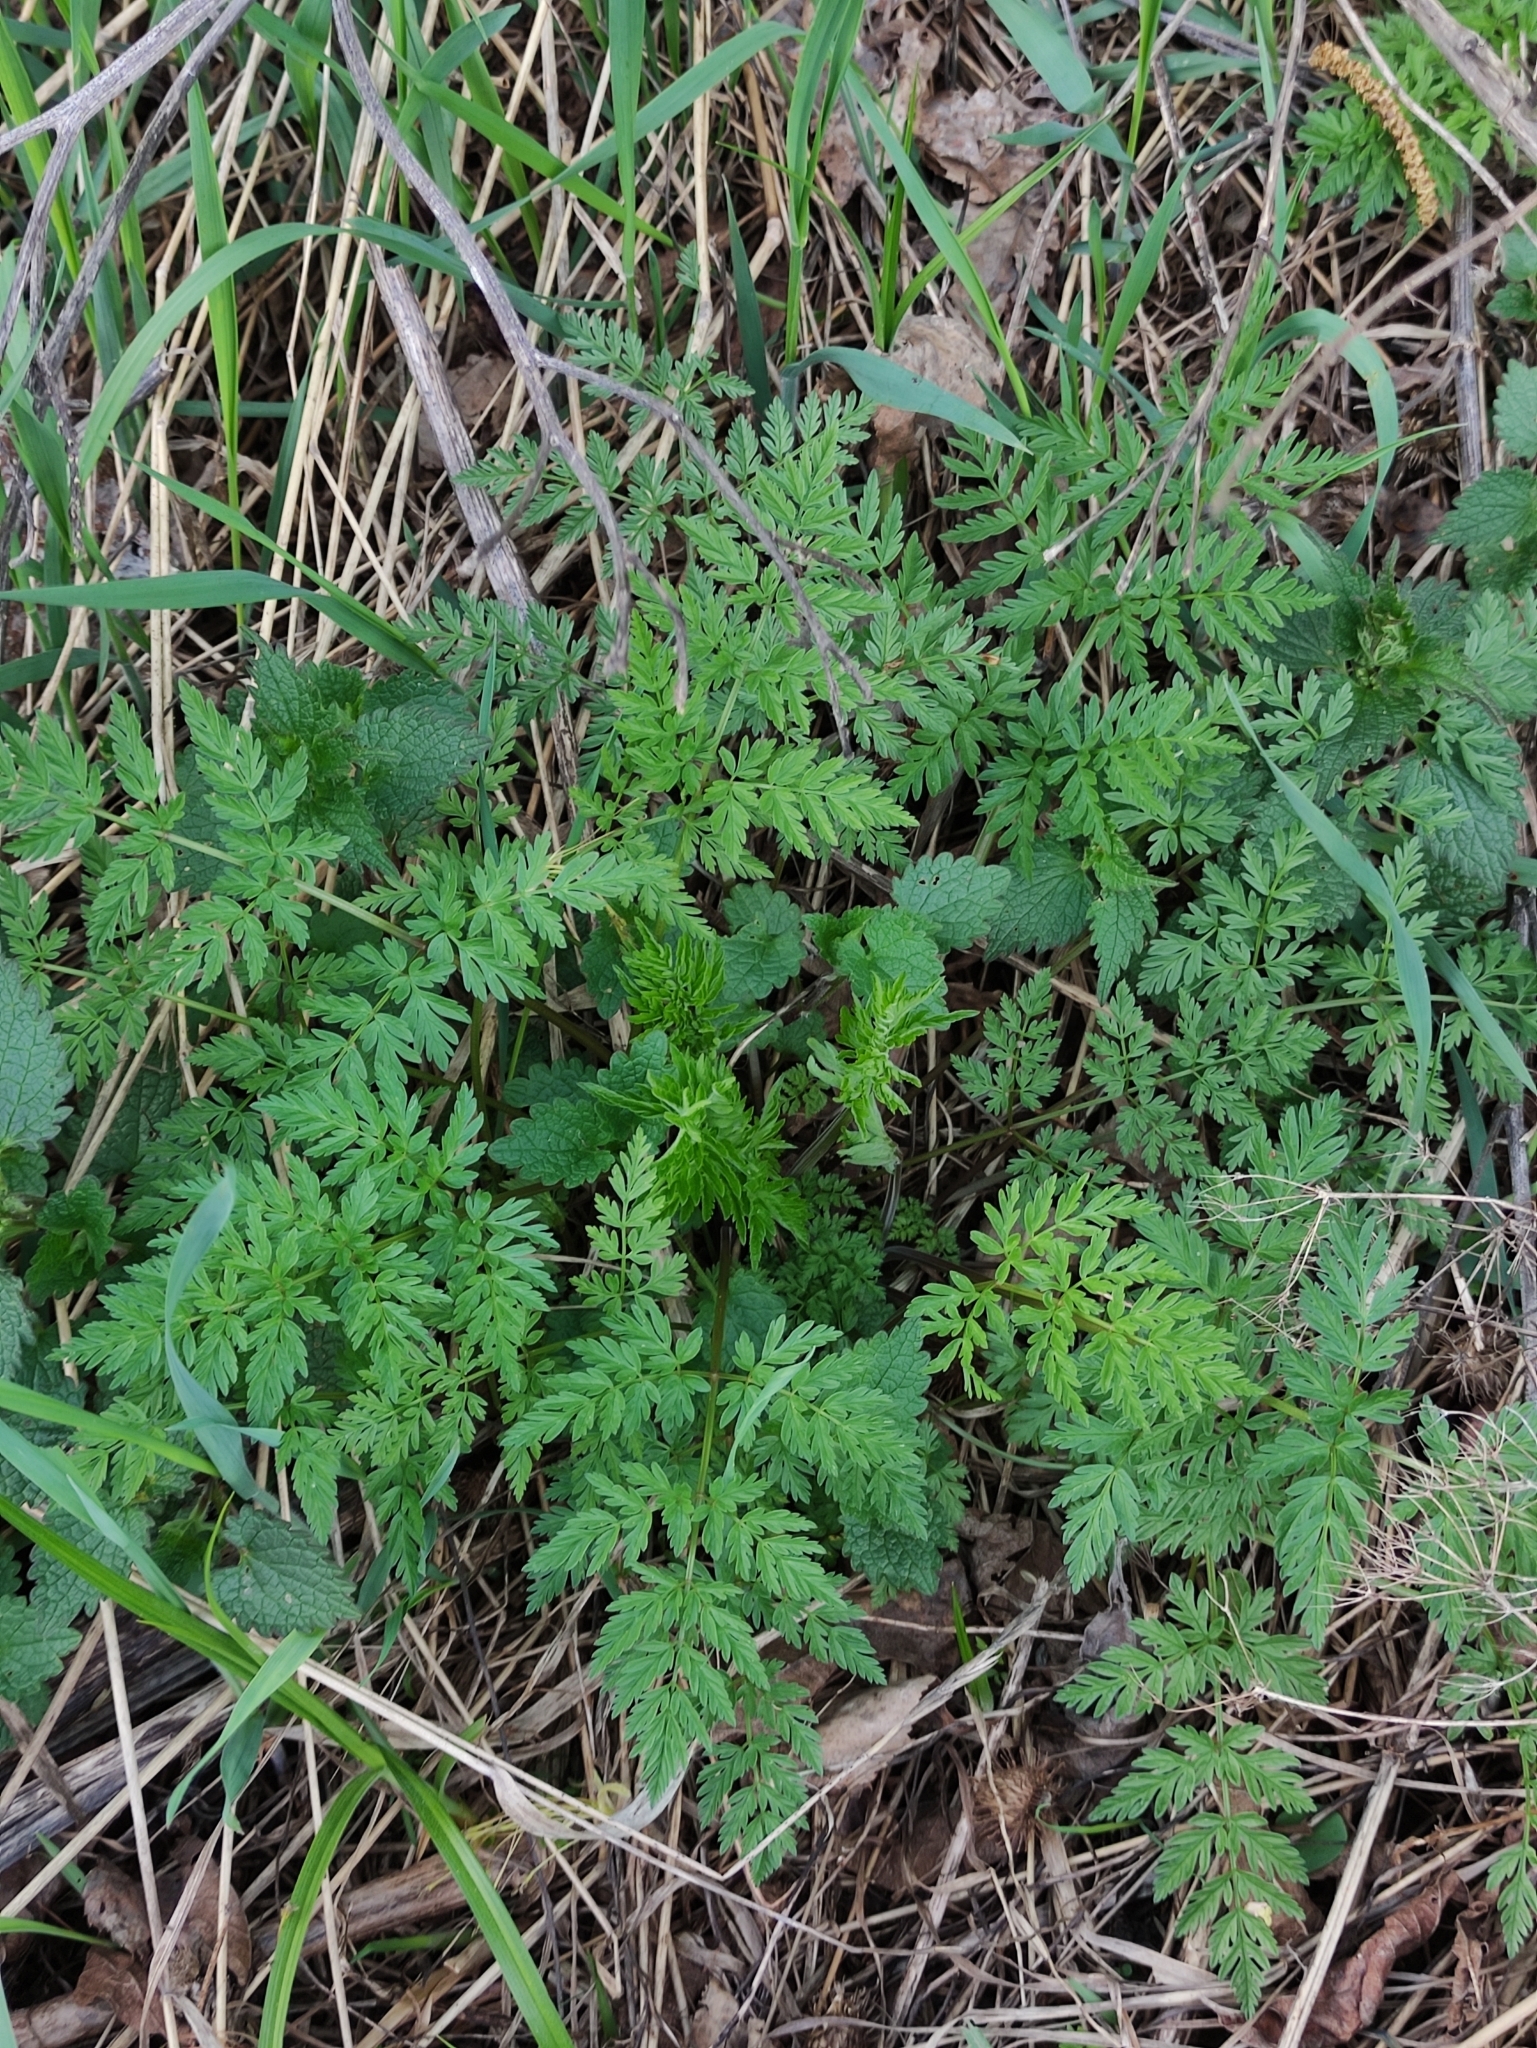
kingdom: Plantae
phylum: Tracheophyta
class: Magnoliopsida
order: Apiales
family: Apiaceae
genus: Anthriscus
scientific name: Anthriscus sylvestris
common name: Cow parsley
